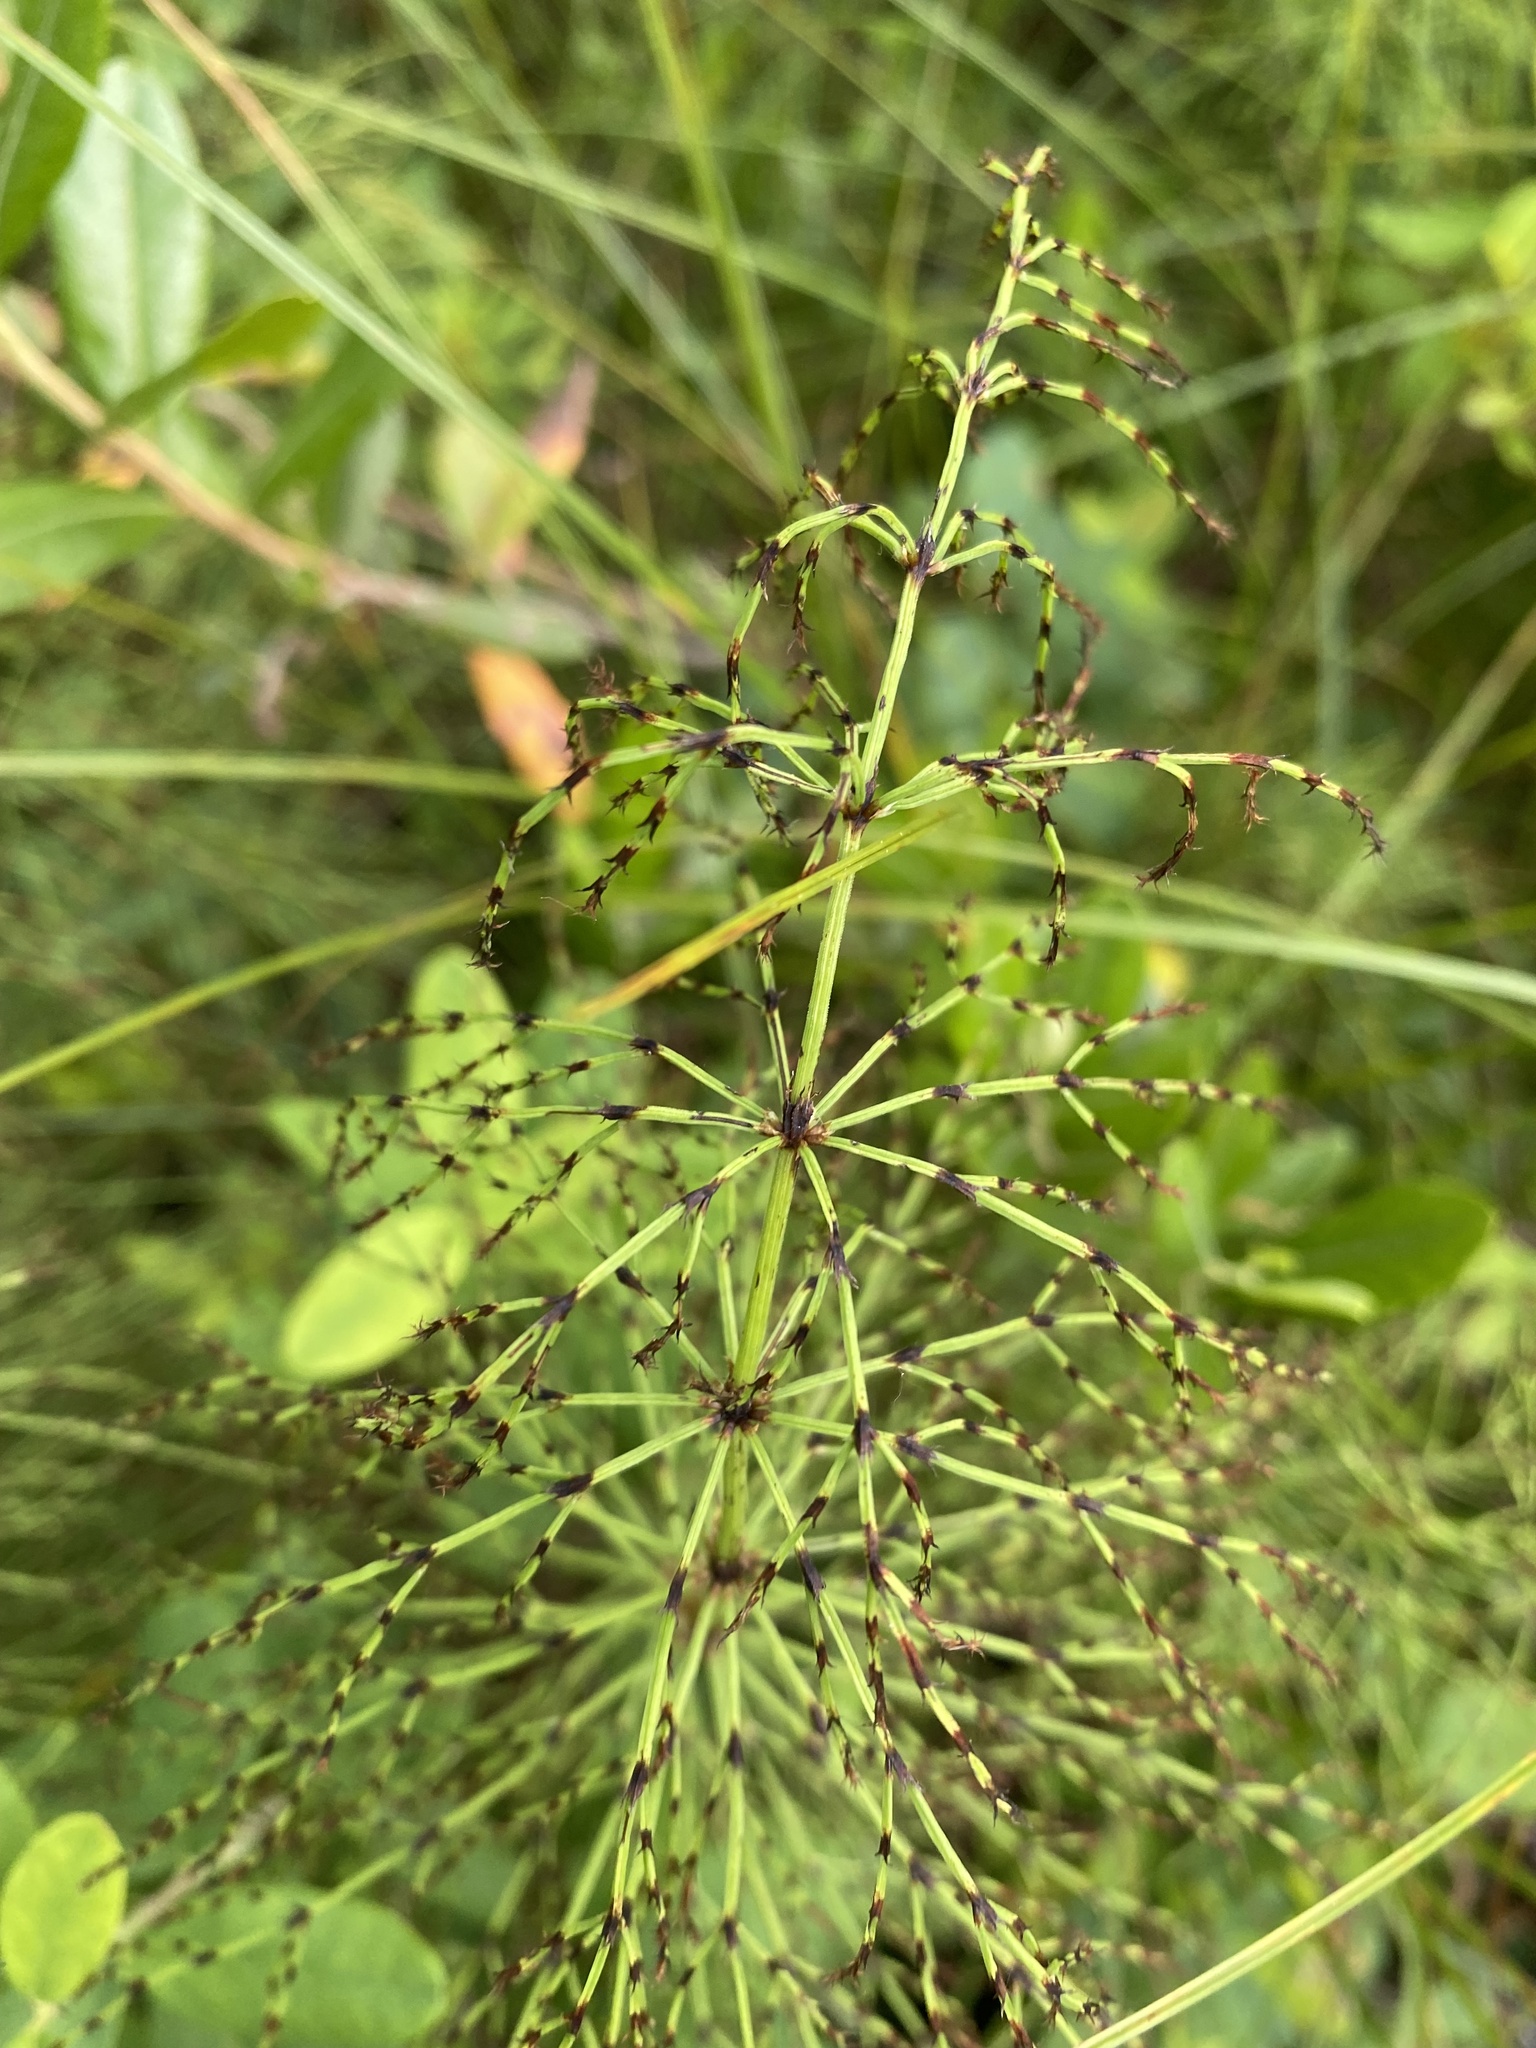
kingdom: Plantae
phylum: Tracheophyta
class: Polypodiopsida
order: Equisetales
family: Equisetaceae
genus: Equisetum
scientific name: Equisetum sylvaticum
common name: Wood horsetail
